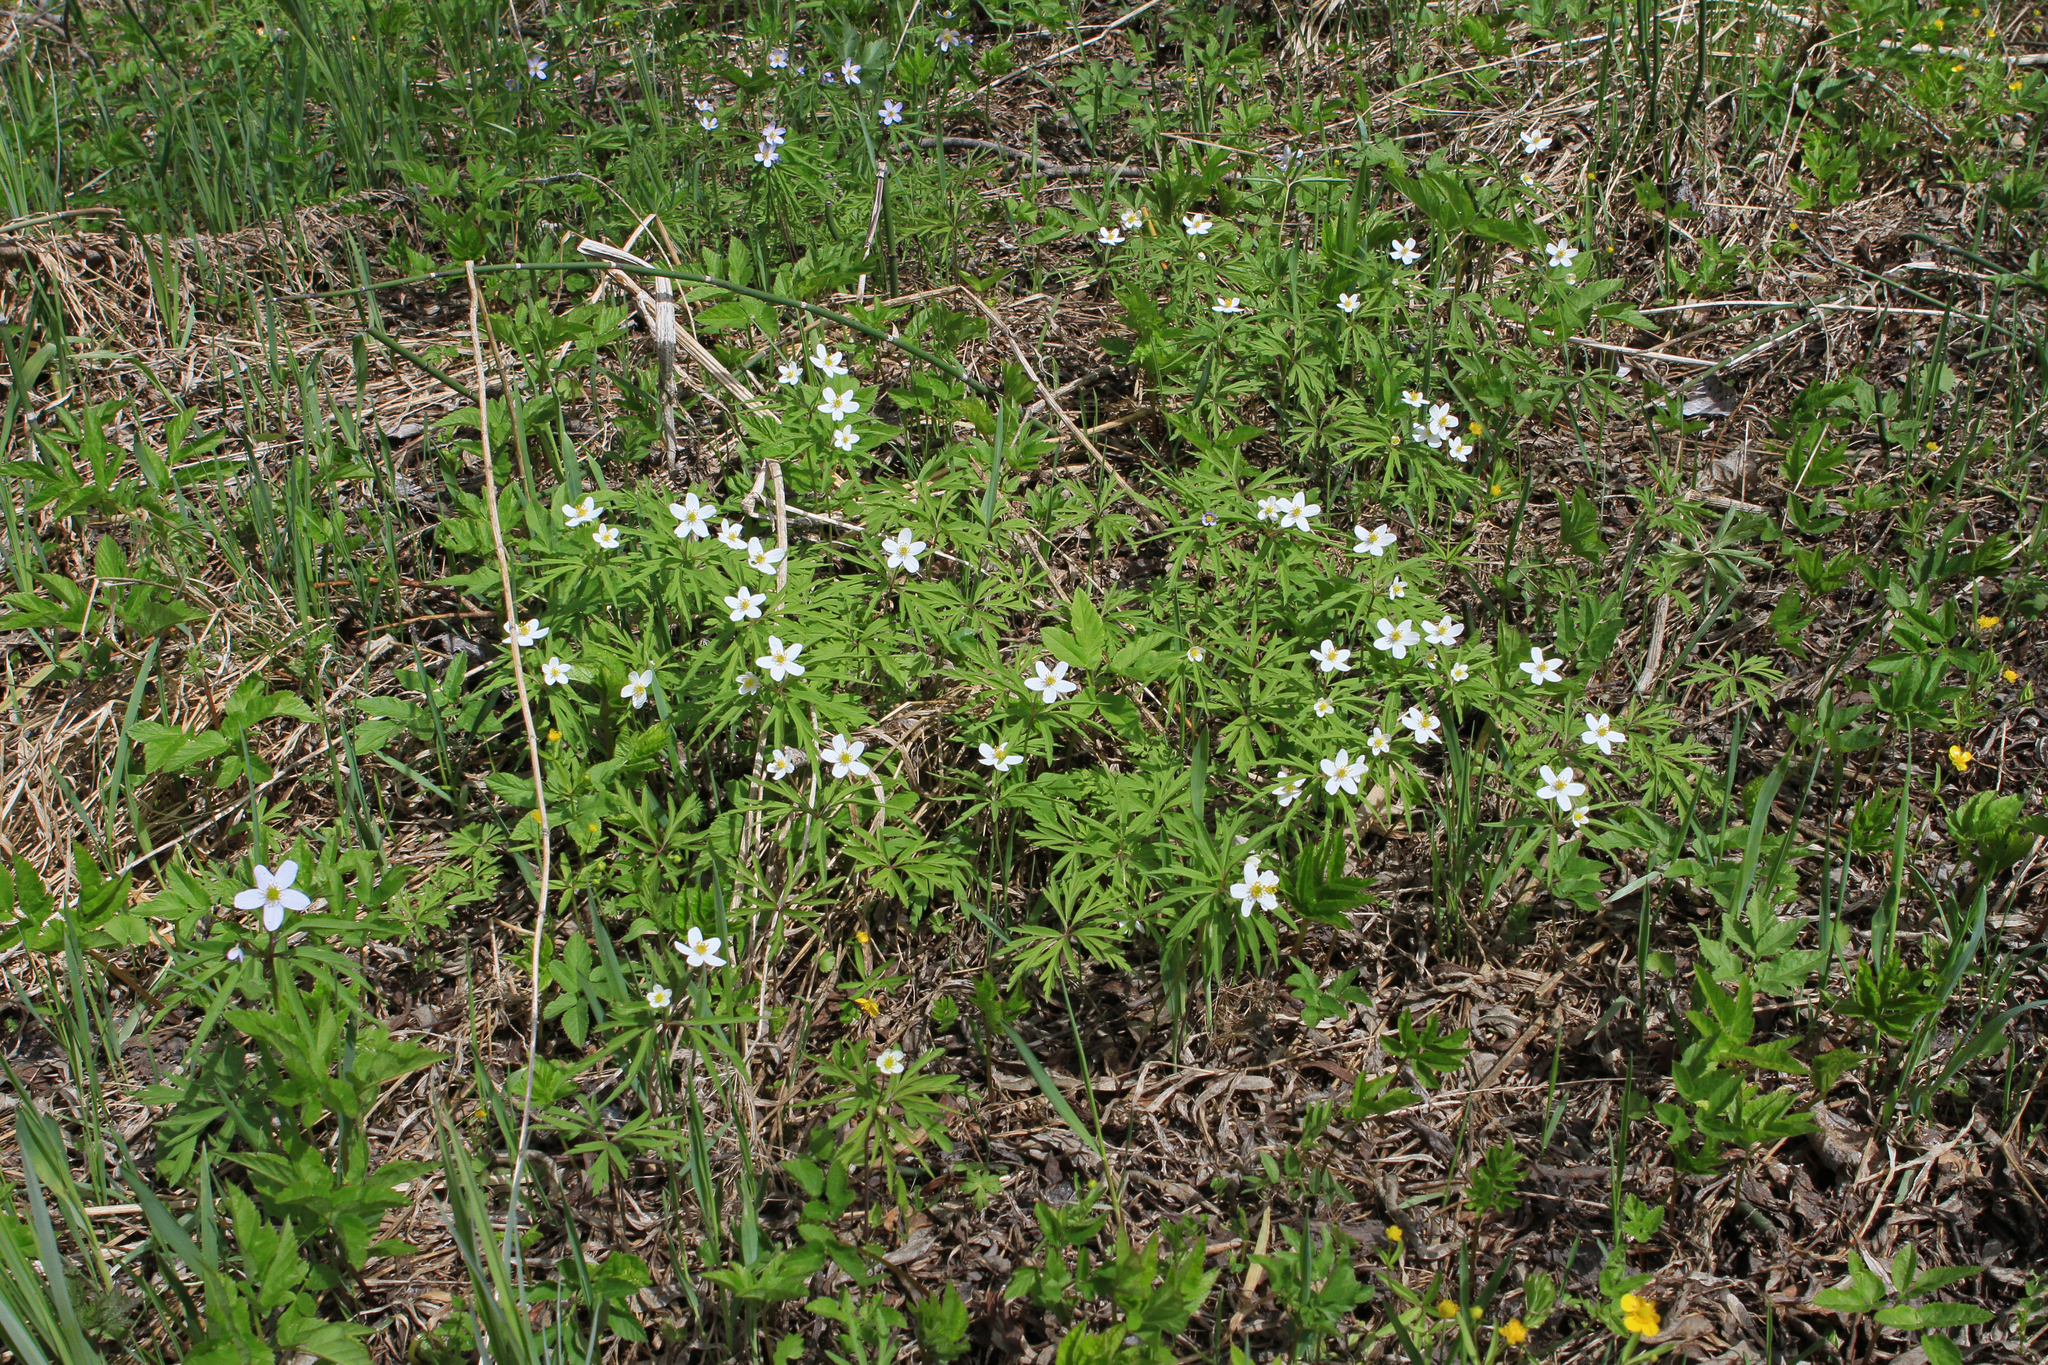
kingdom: Plantae
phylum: Tracheophyta
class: Magnoliopsida
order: Ranunculales
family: Ranunculaceae
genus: Anemone
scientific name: Anemone caerulea
